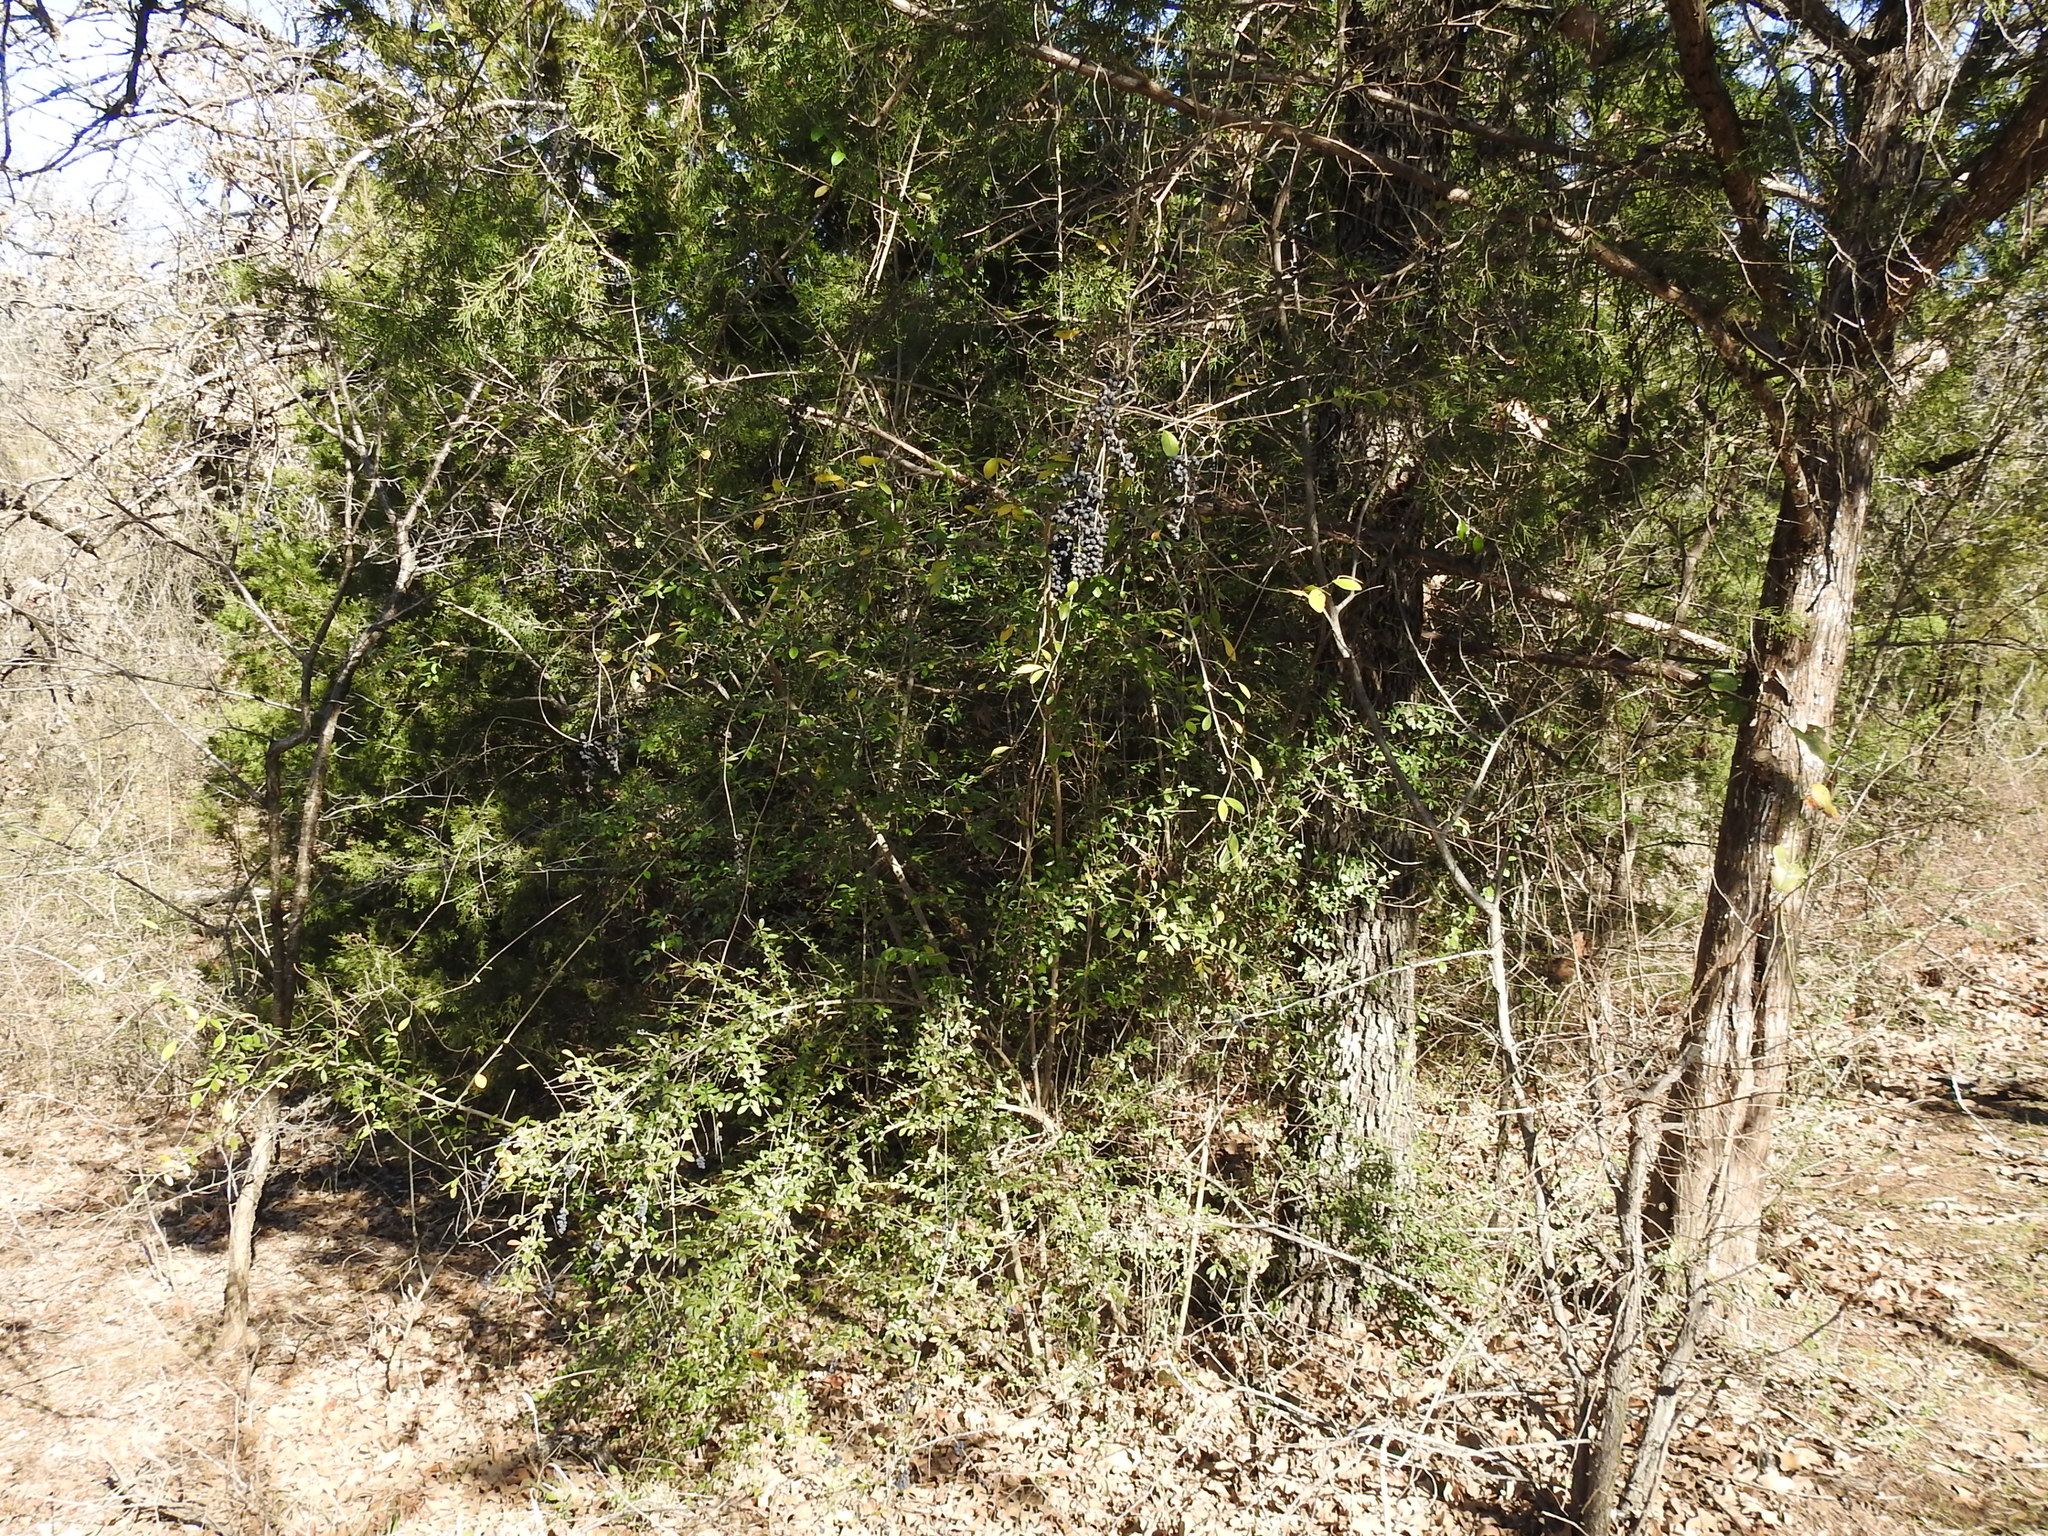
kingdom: Plantae
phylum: Tracheophyta
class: Magnoliopsida
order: Lamiales
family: Oleaceae
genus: Ligustrum
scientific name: Ligustrum quihoui
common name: Waxyleaf privet
